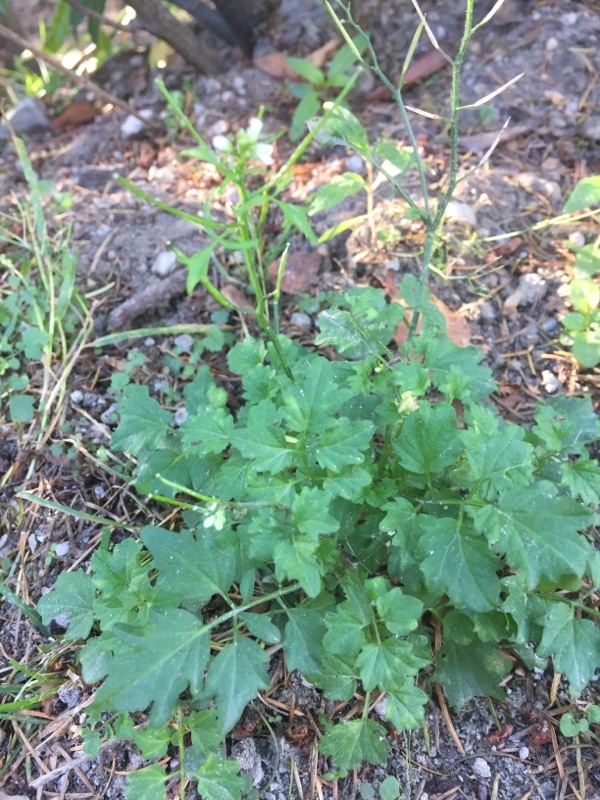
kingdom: Plantae
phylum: Tracheophyta
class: Magnoliopsida
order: Brassicales
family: Brassicaceae
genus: Cardamine
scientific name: Cardamine flexuosa
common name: Woodland bittercress
